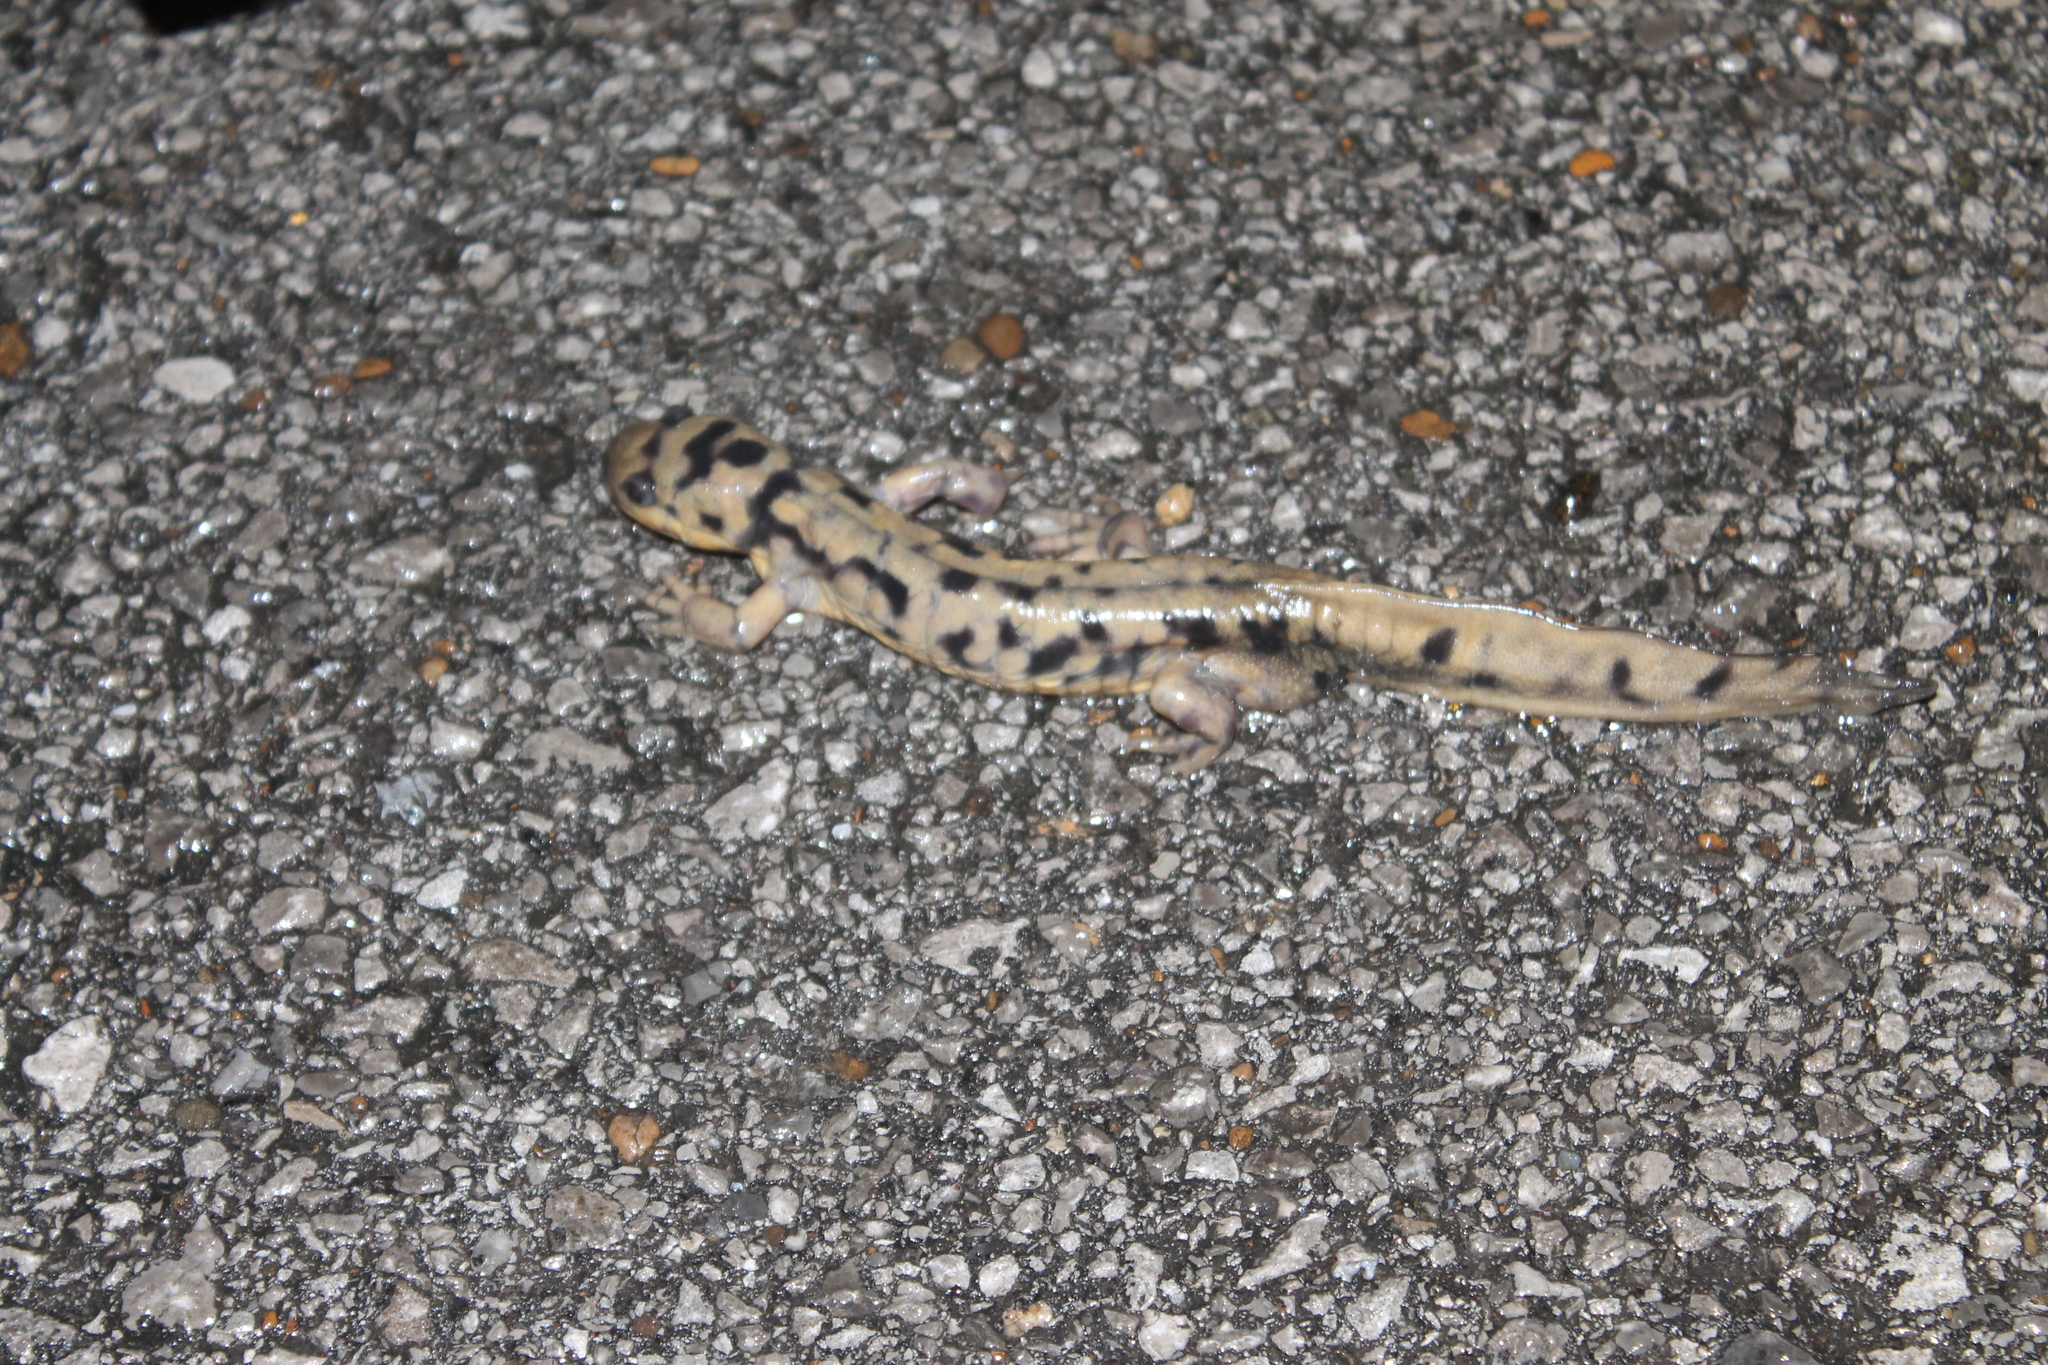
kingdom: Animalia
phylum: Chordata
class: Amphibia
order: Caudata
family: Ambystomatidae
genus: Ambystoma
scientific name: Ambystoma tigrinum
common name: Tiger salamander
